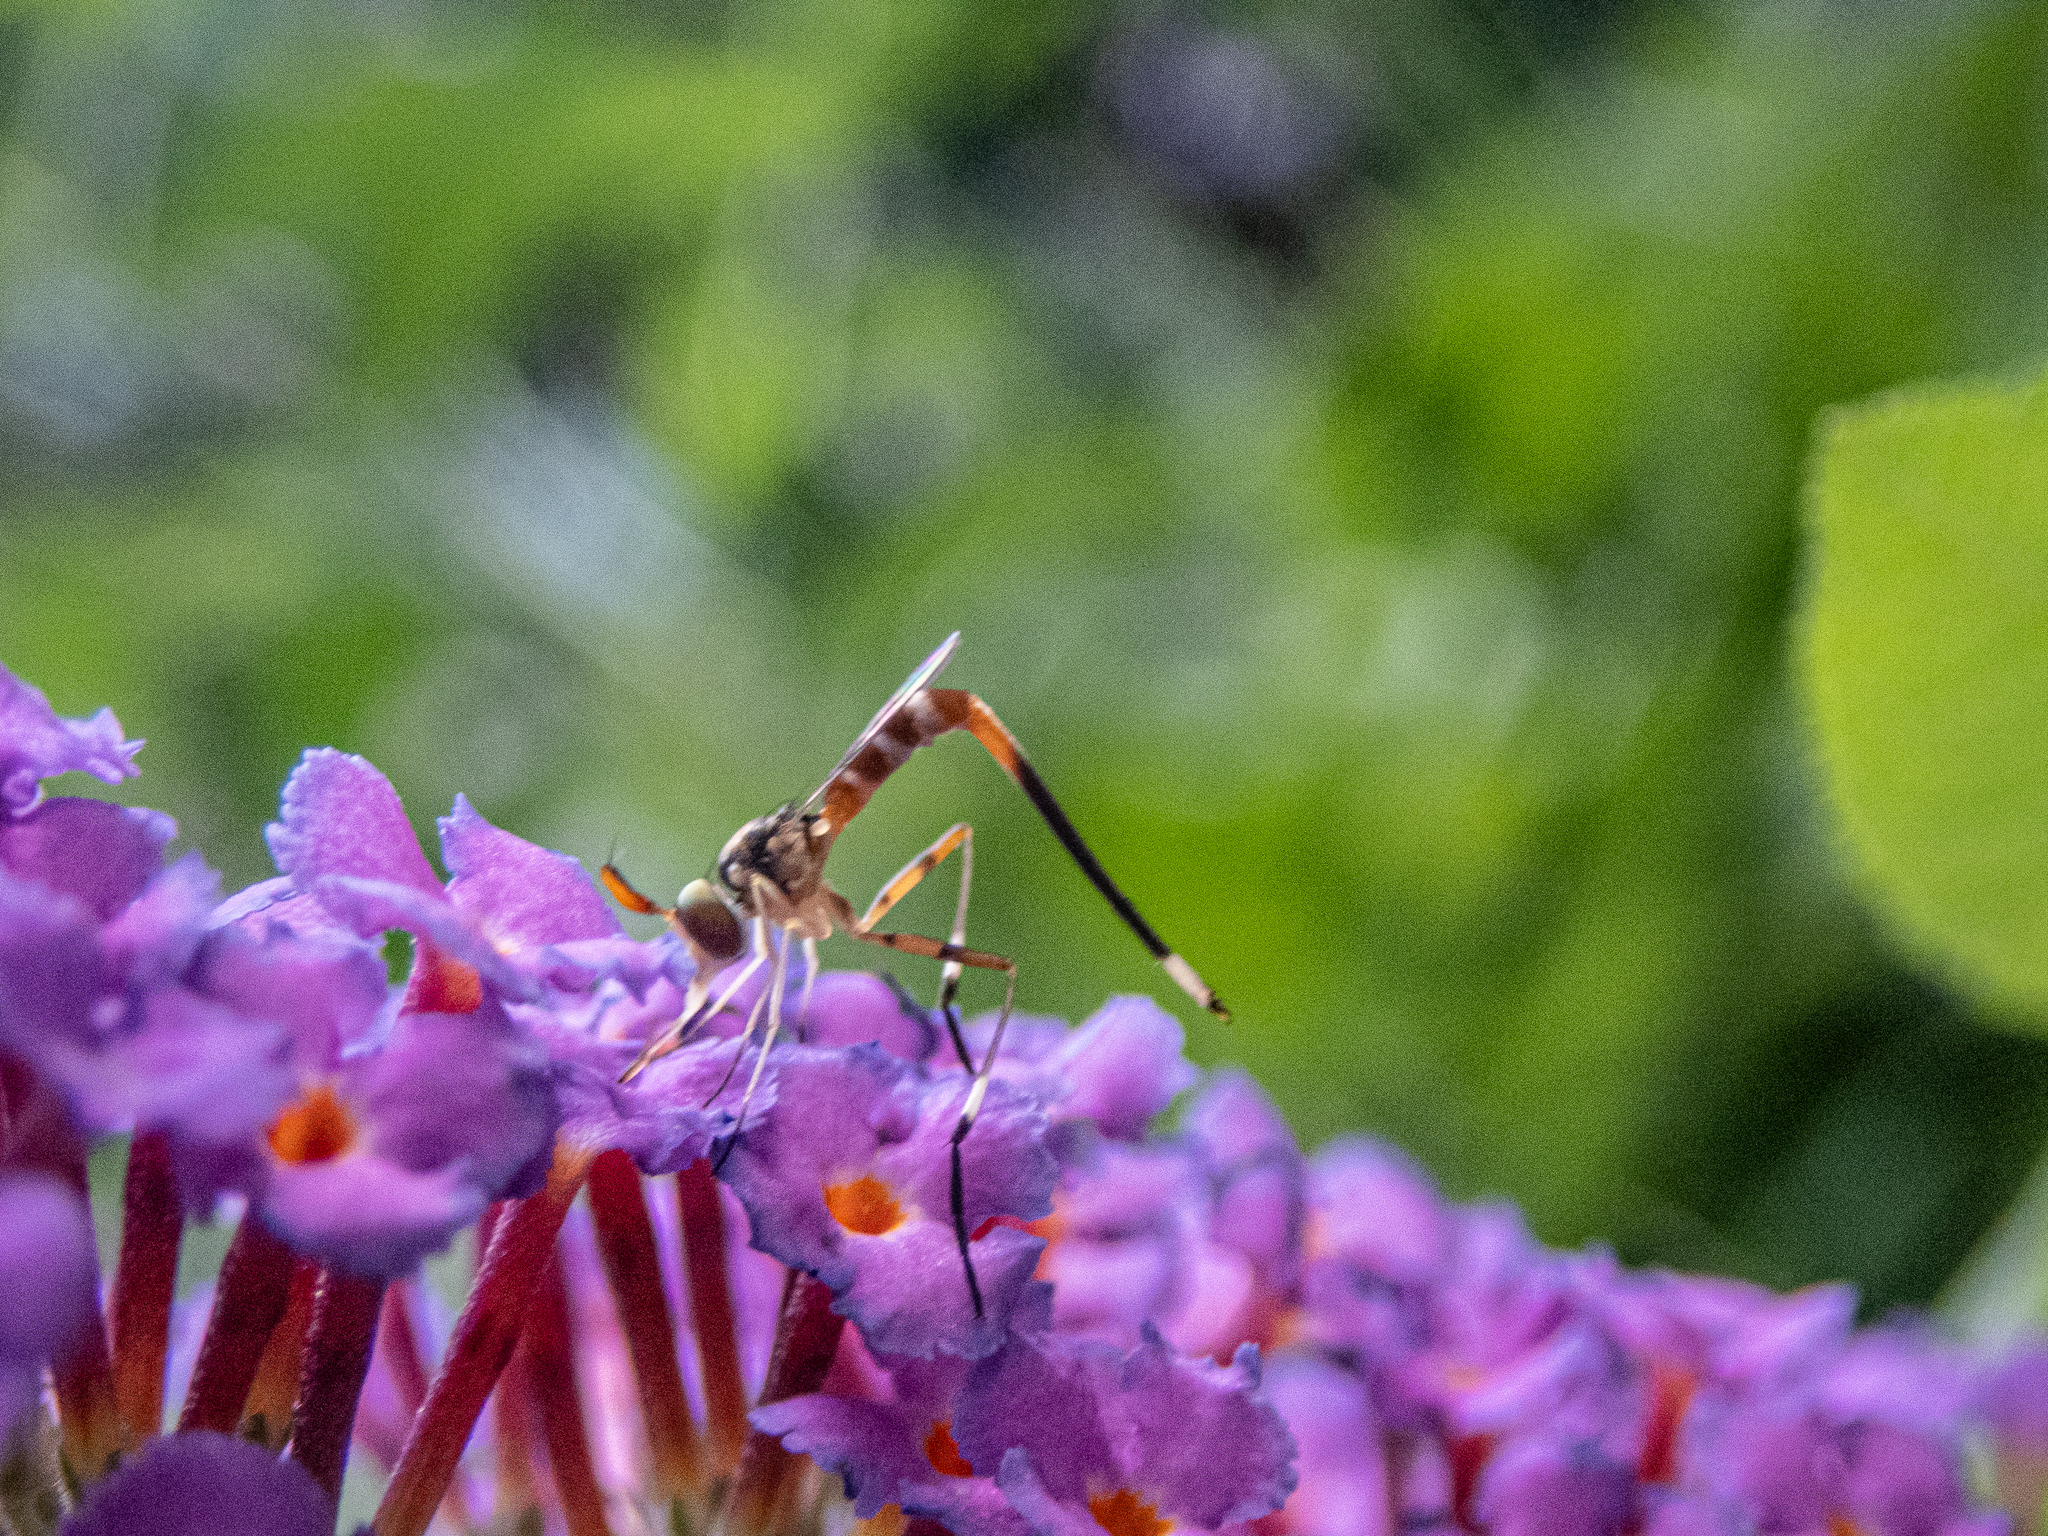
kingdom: Animalia
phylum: Arthropoda
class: Insecta
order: Diptera
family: Conopidae
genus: Stylogaster
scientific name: Stylogaster neglecta
